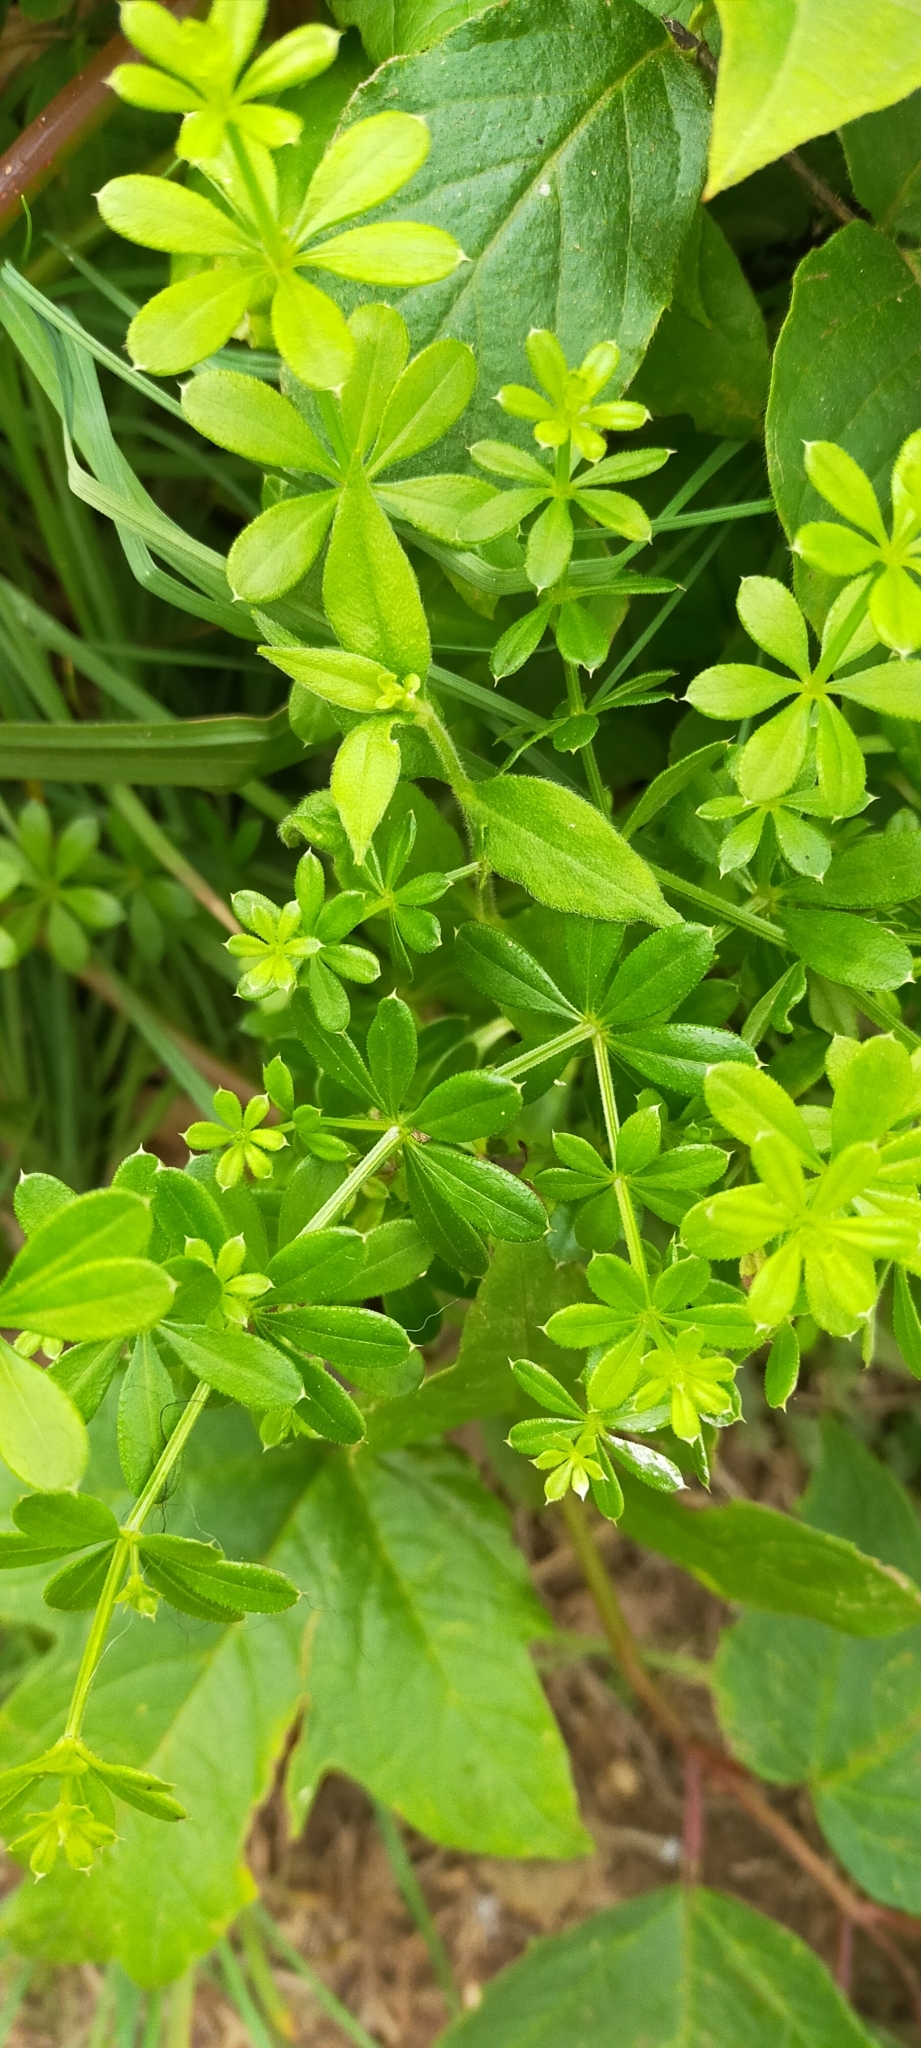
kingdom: Plantae
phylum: Tracheophyta
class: Magnoliopsida
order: Gentianales
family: Rubiaceae
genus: Galium
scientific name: Galium dahuricum
